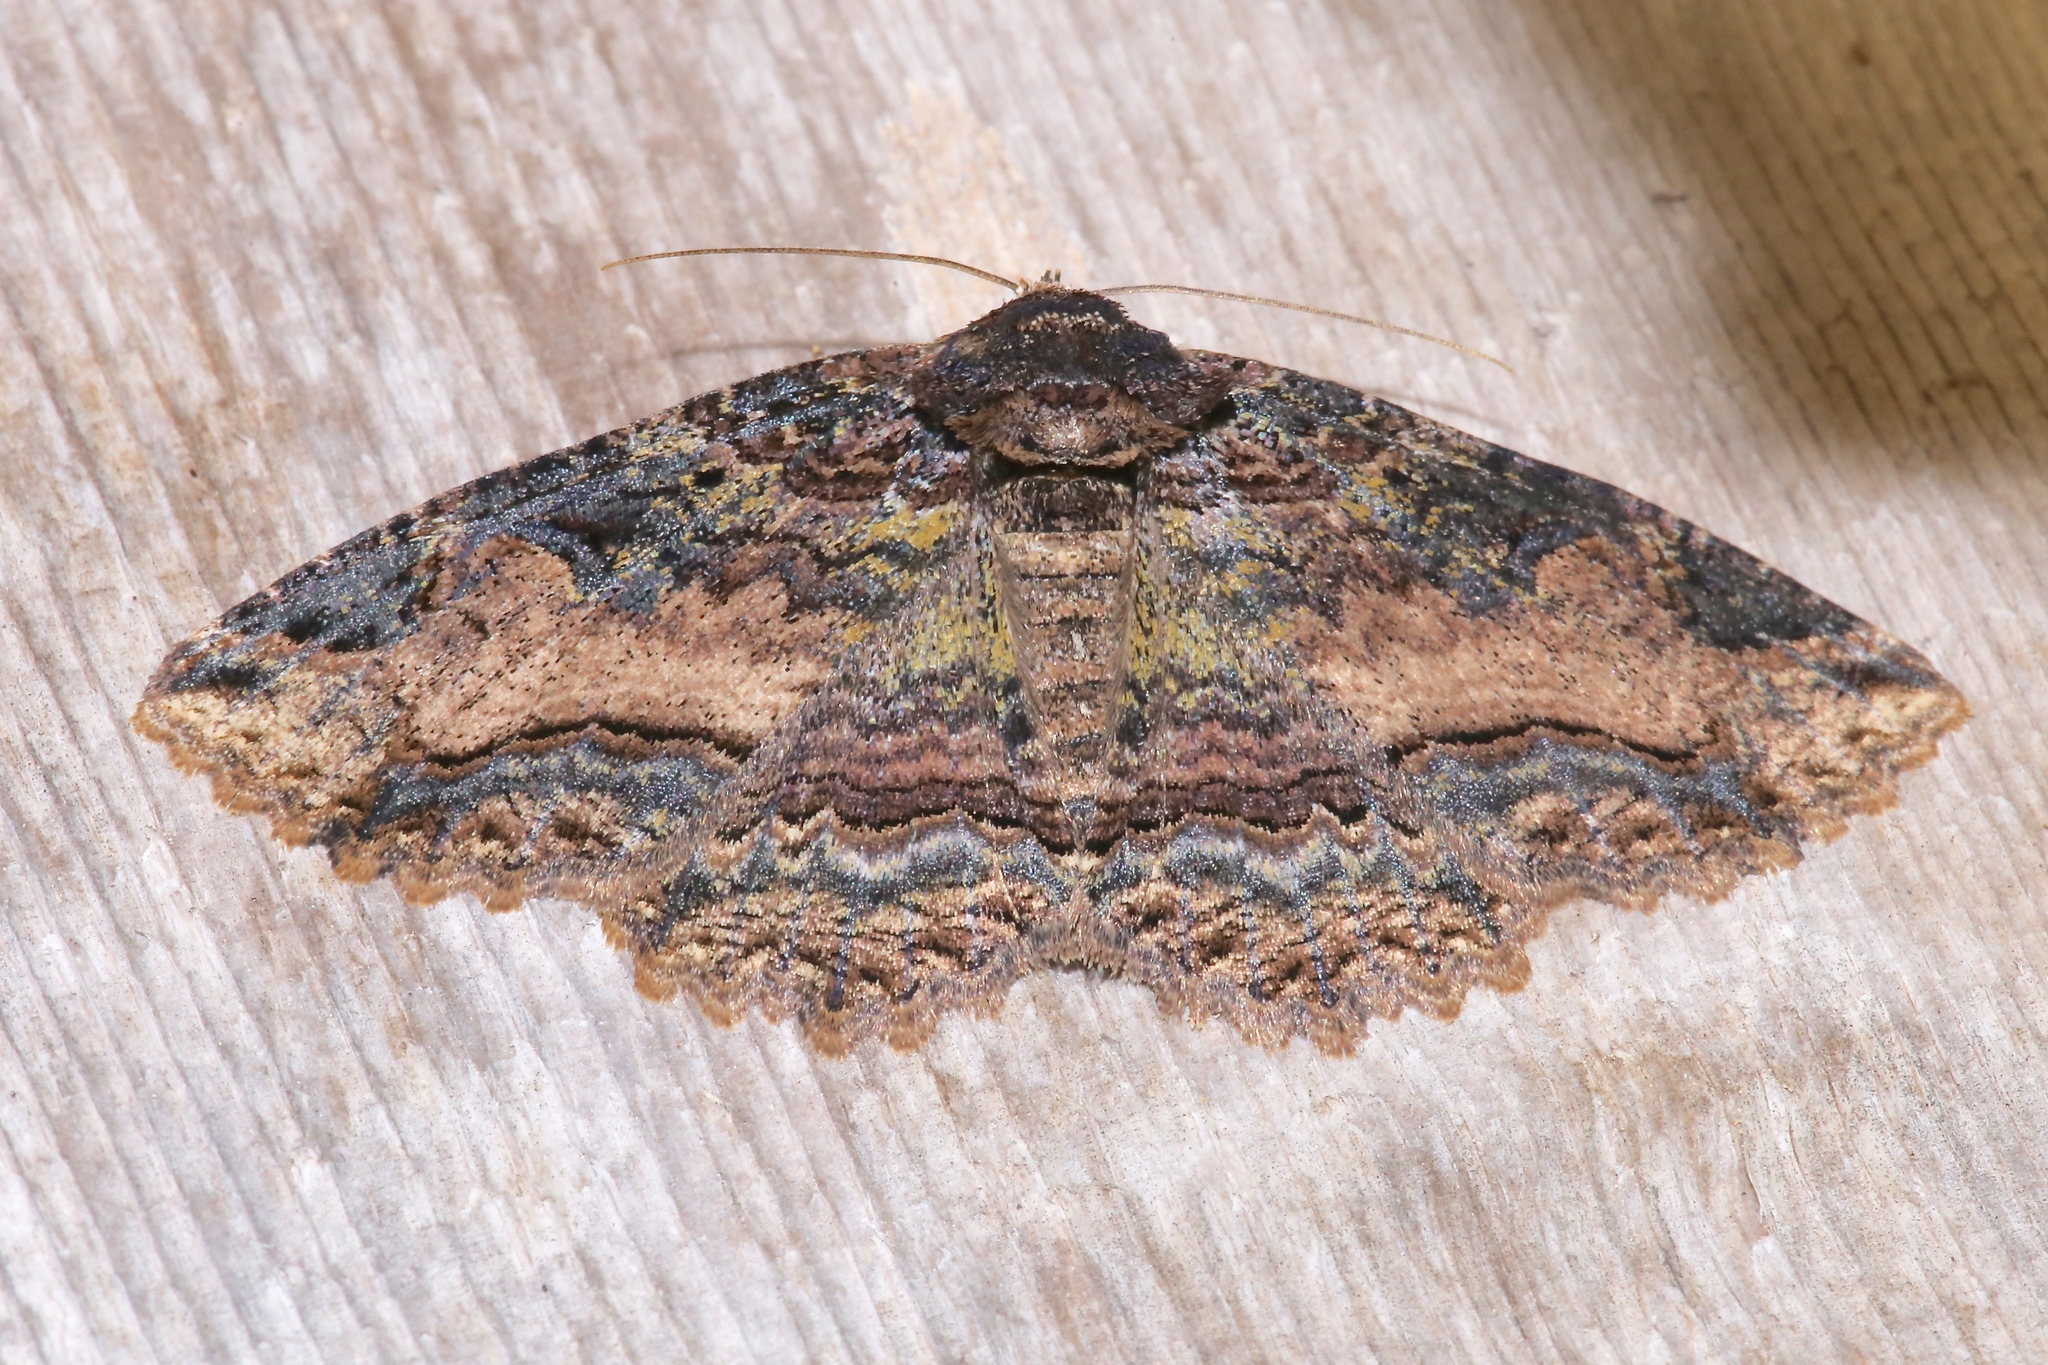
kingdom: Animalia
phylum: Arthropoda
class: Insecta
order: Lepidoptera
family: Erebidae
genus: Zale
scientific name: Zale minerea
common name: Colorful zale moth
